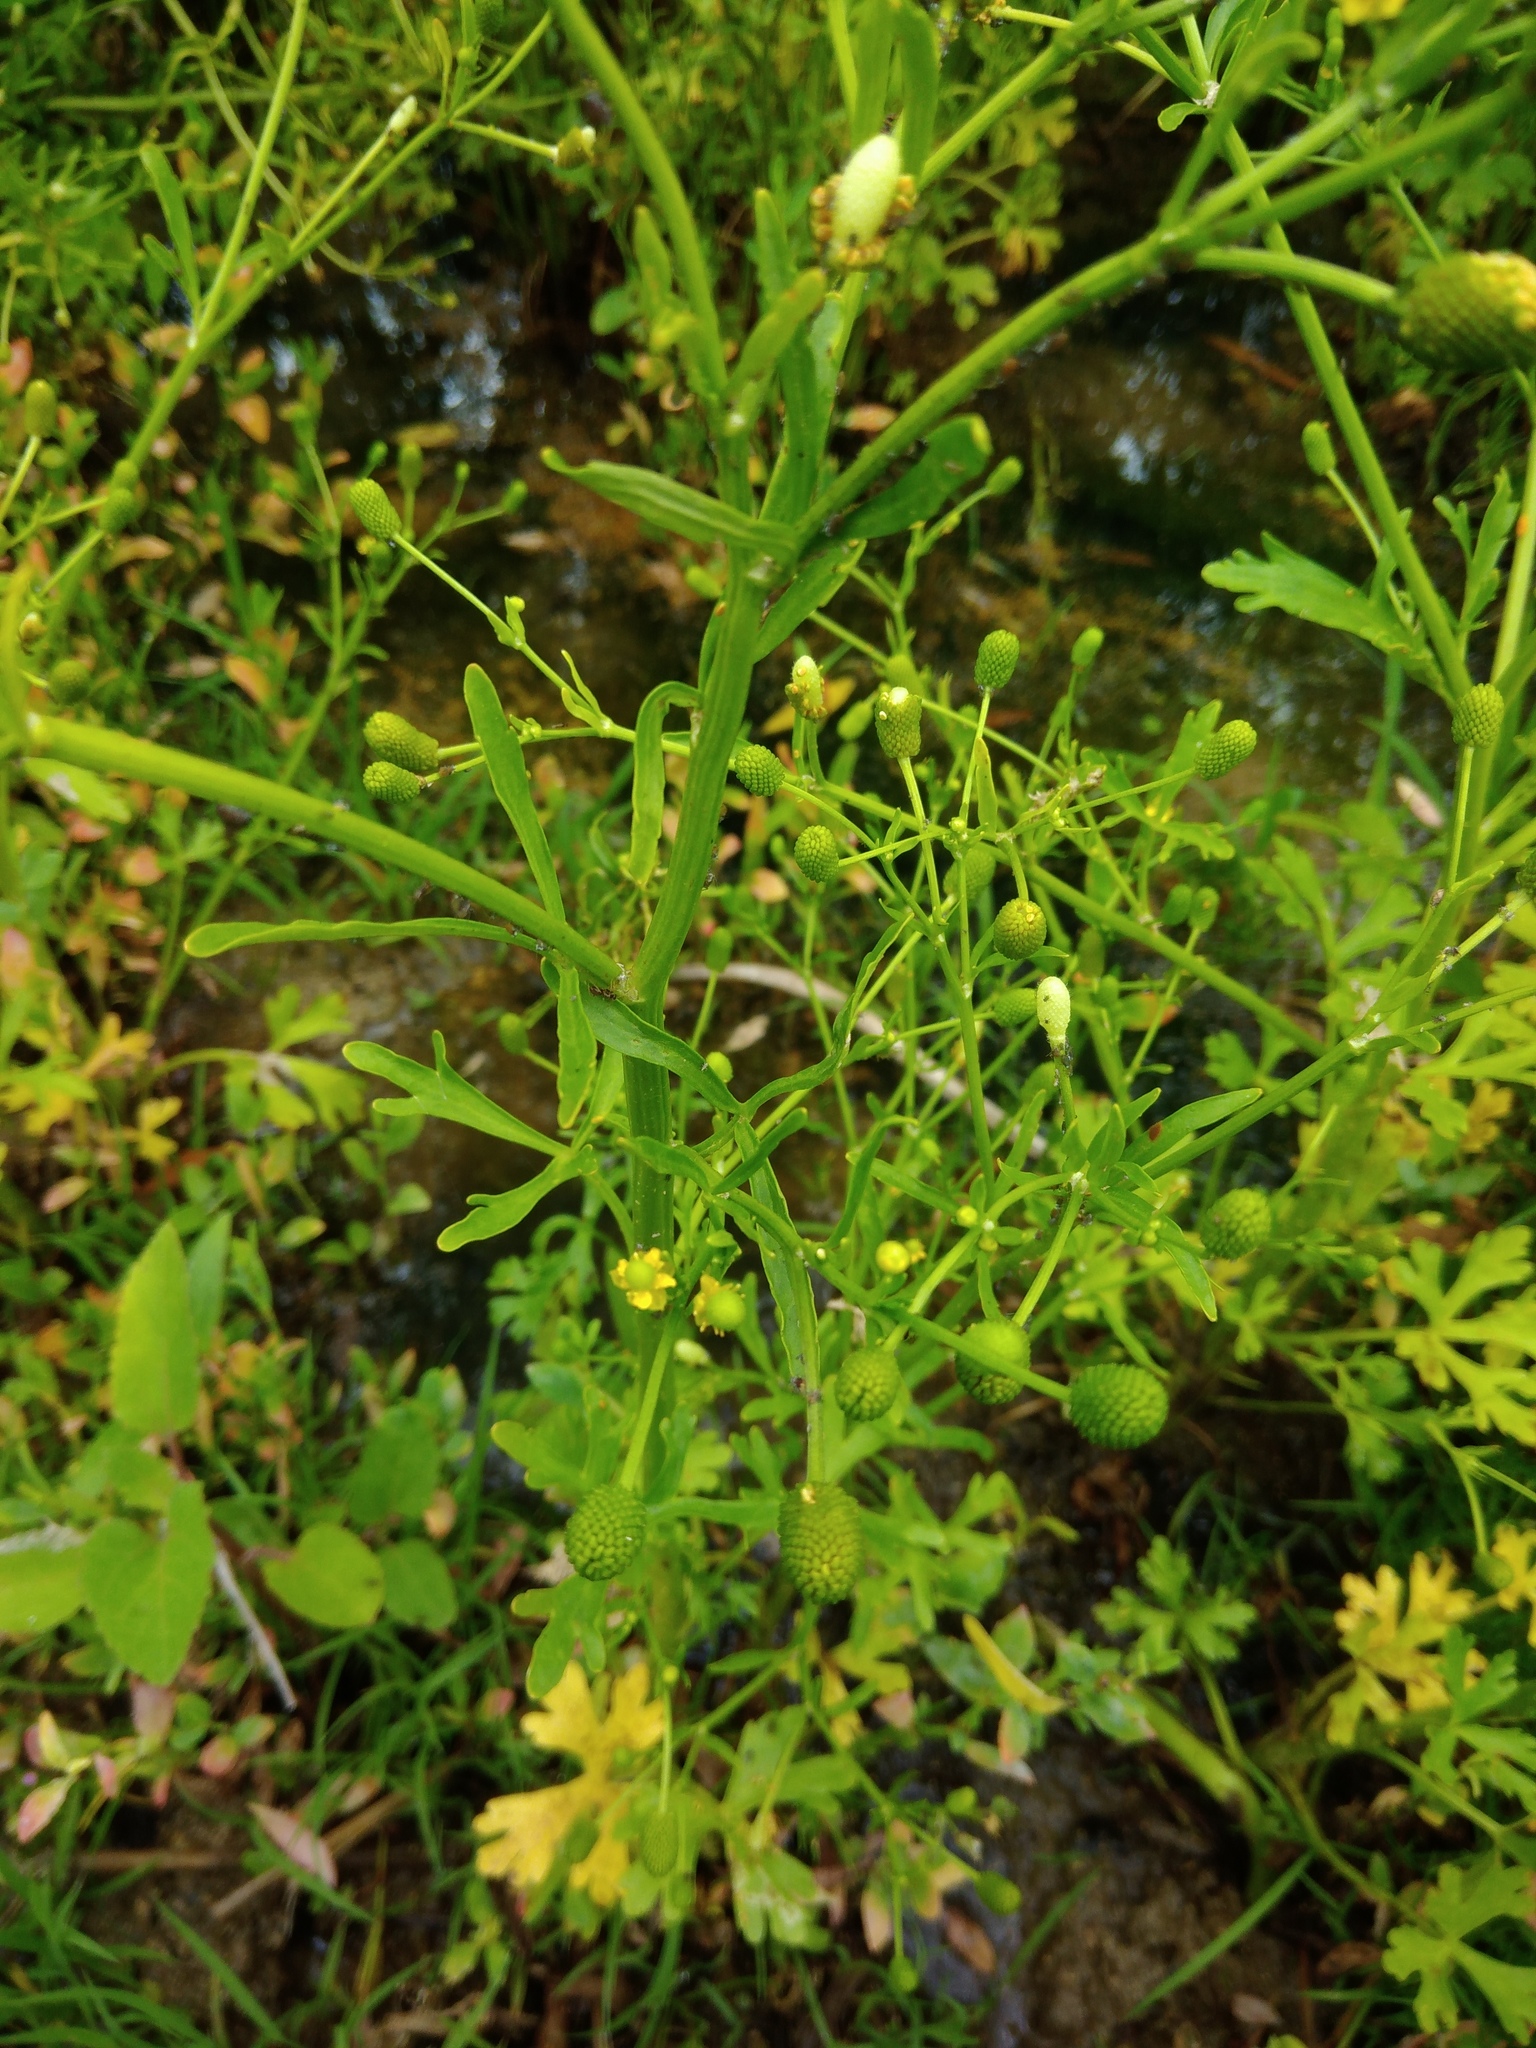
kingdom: Plantae
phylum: Tracheophyta
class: Magnoliopsida
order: Ranunculales
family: Ranunculaceae
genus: Ranunculus
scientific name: Ranunculus sceleratus
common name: Celery-leaved buttercup
